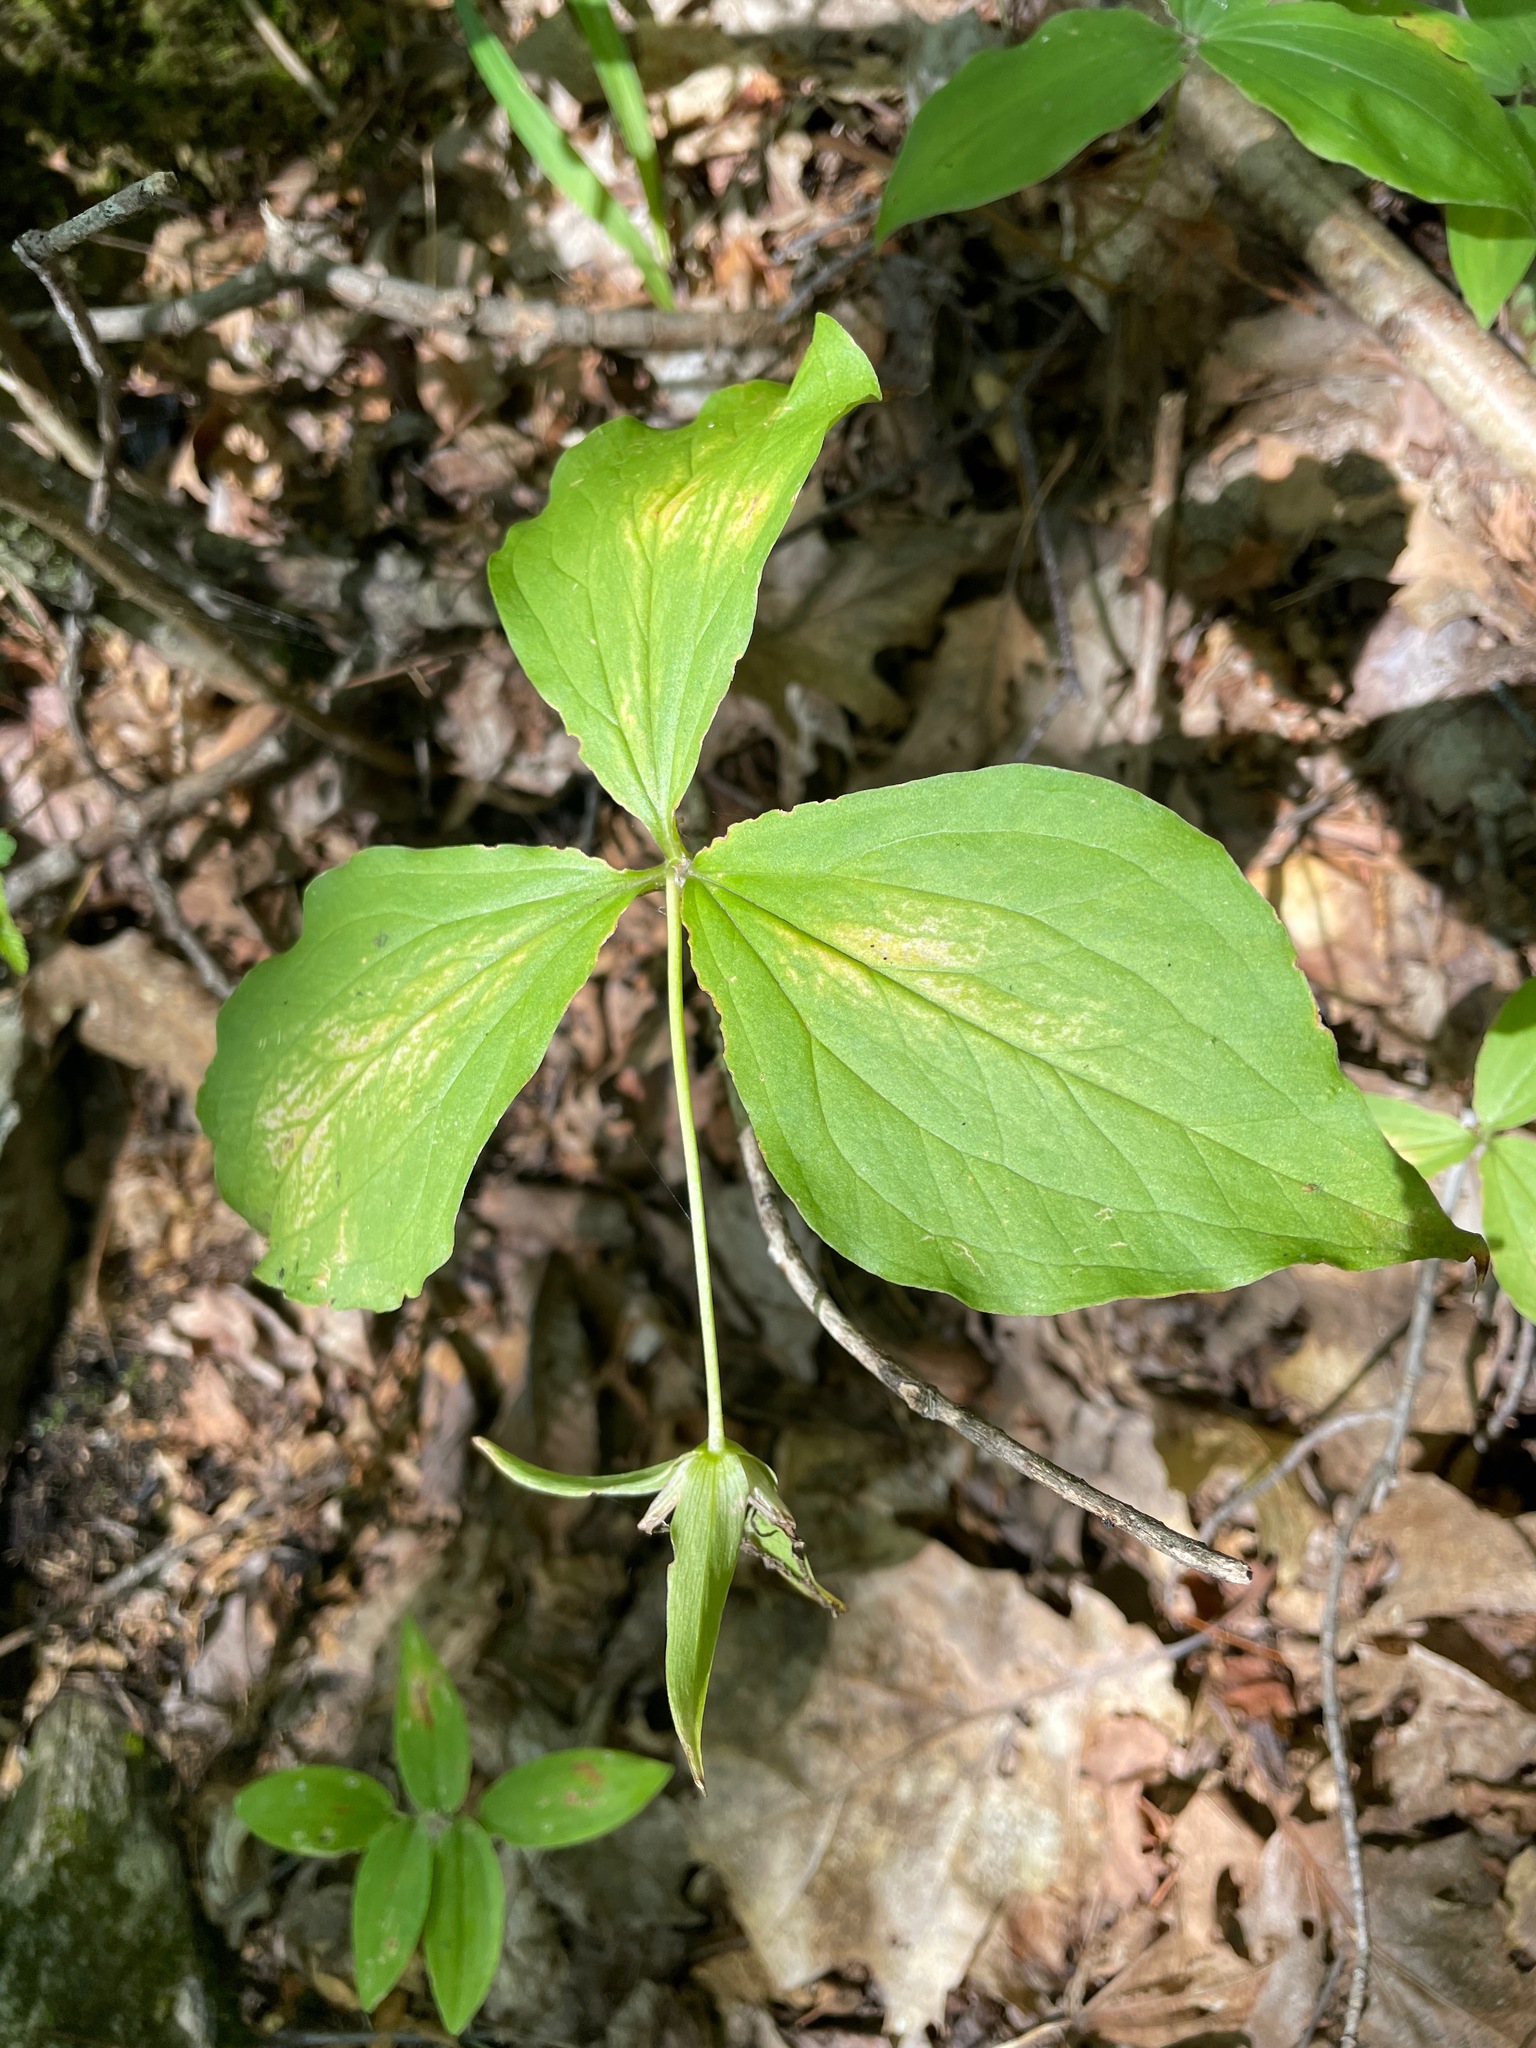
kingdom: Plantae
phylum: Tracheophyta
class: Liliopsida
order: Liliales
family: Melanthiaceae
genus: Trillium
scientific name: Trillium grandiflorum
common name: Great white trillium
